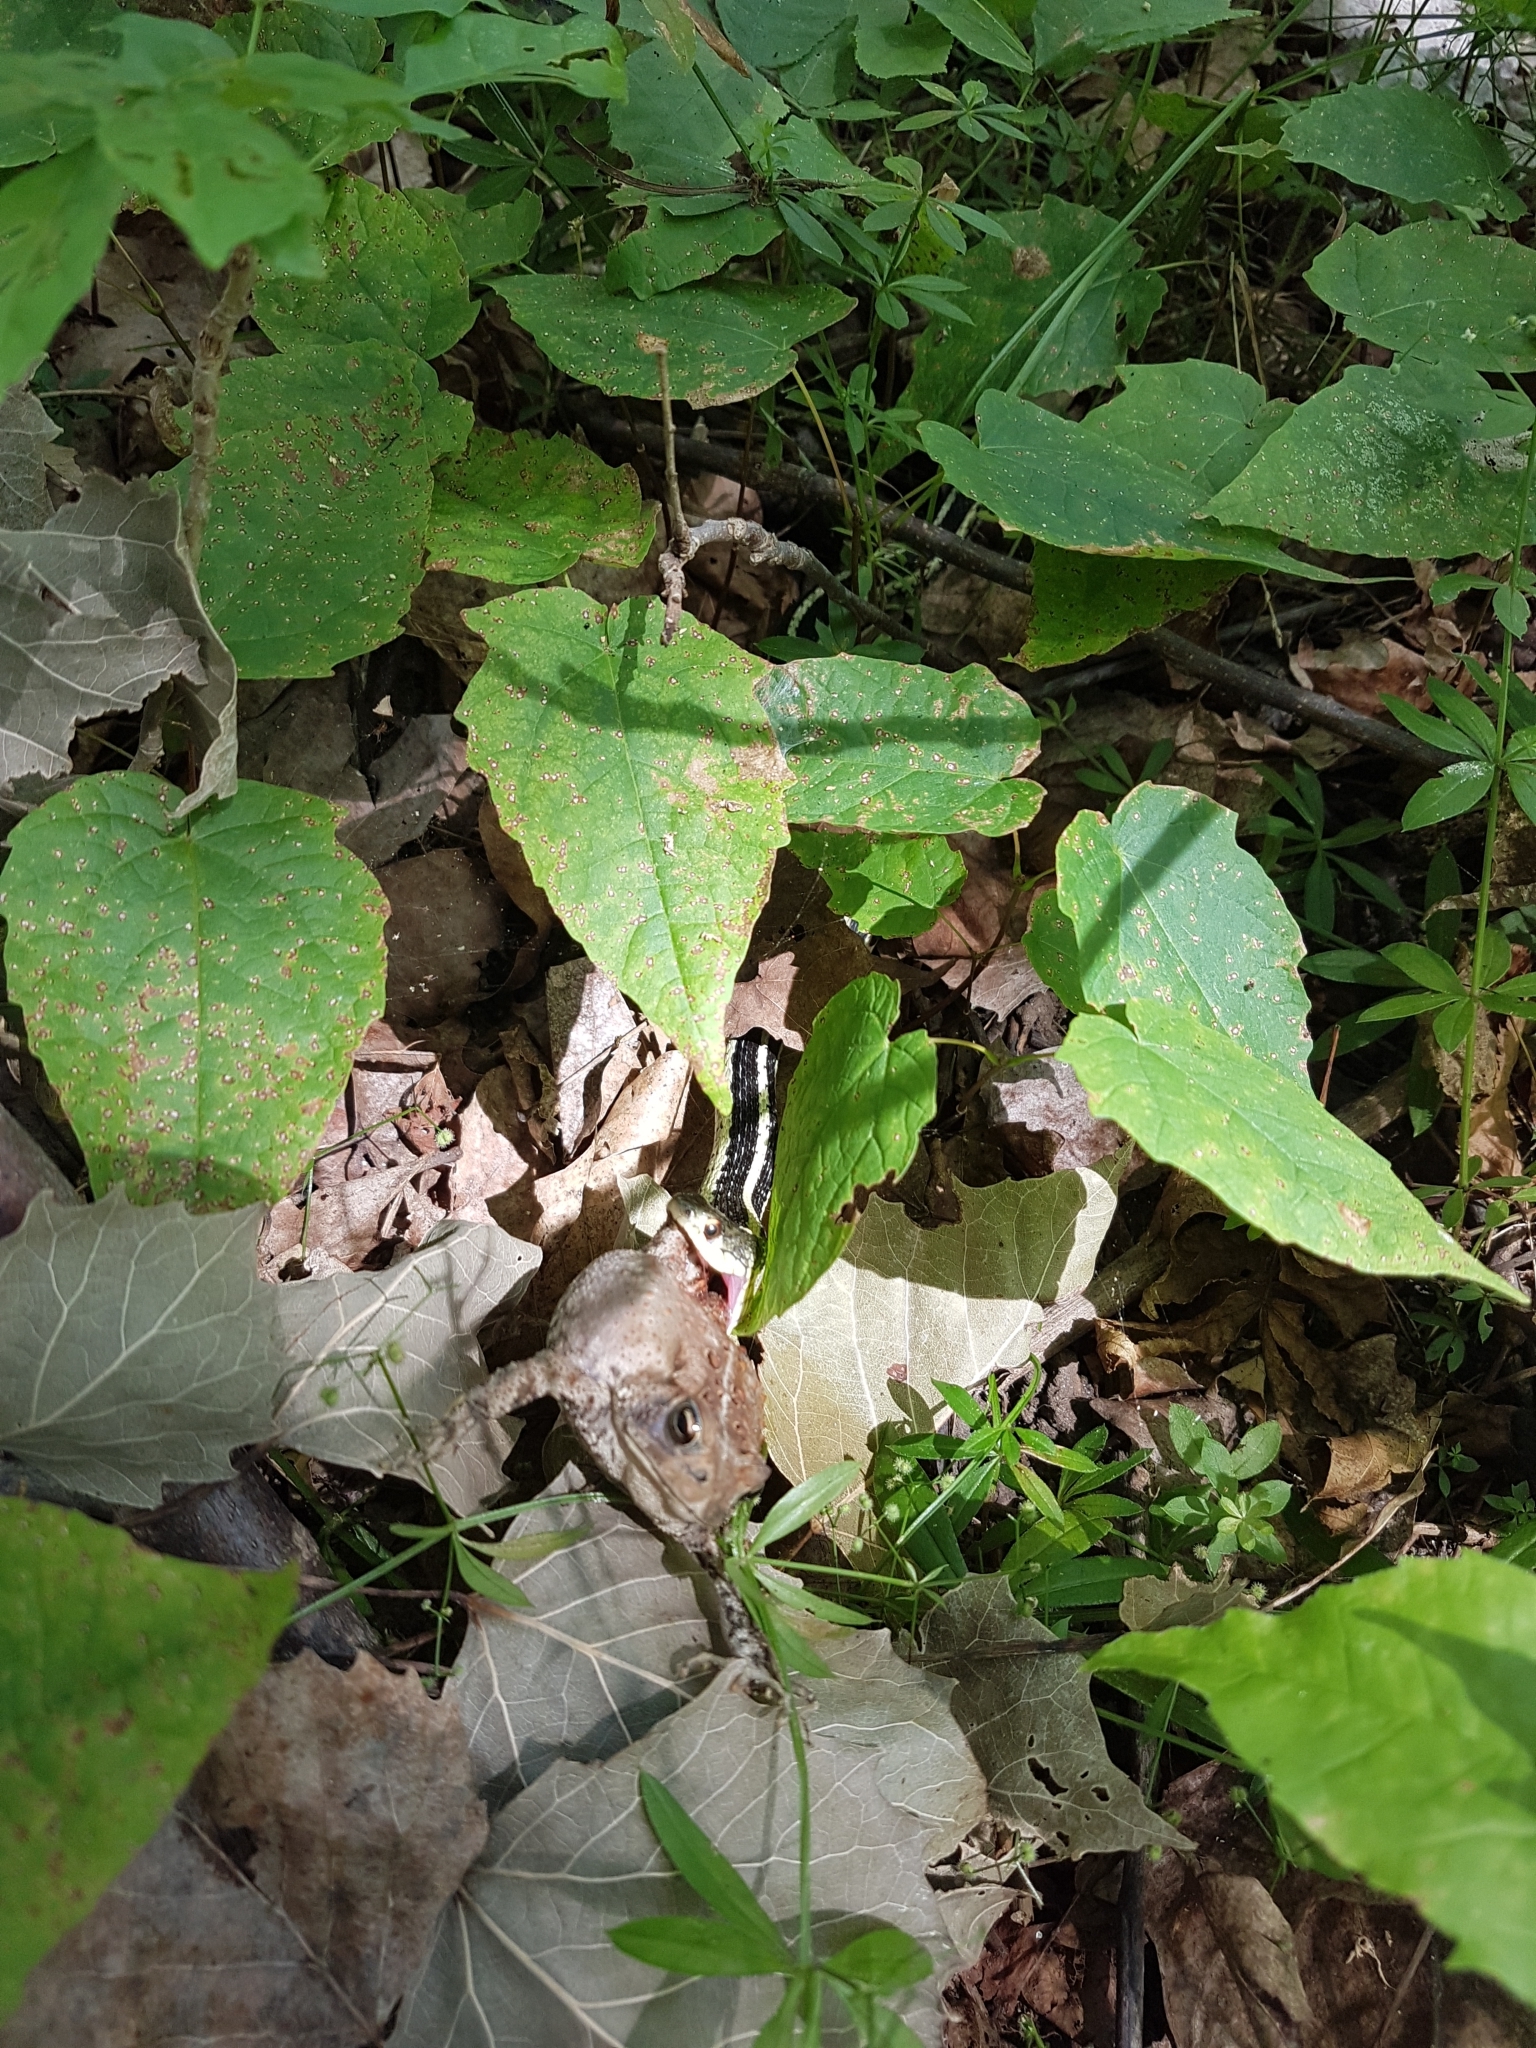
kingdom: Animalia
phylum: Chordata
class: Squamata
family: Colubridae
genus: Thamnophis
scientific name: Thamnophis sirtalis
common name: Common garter snake
